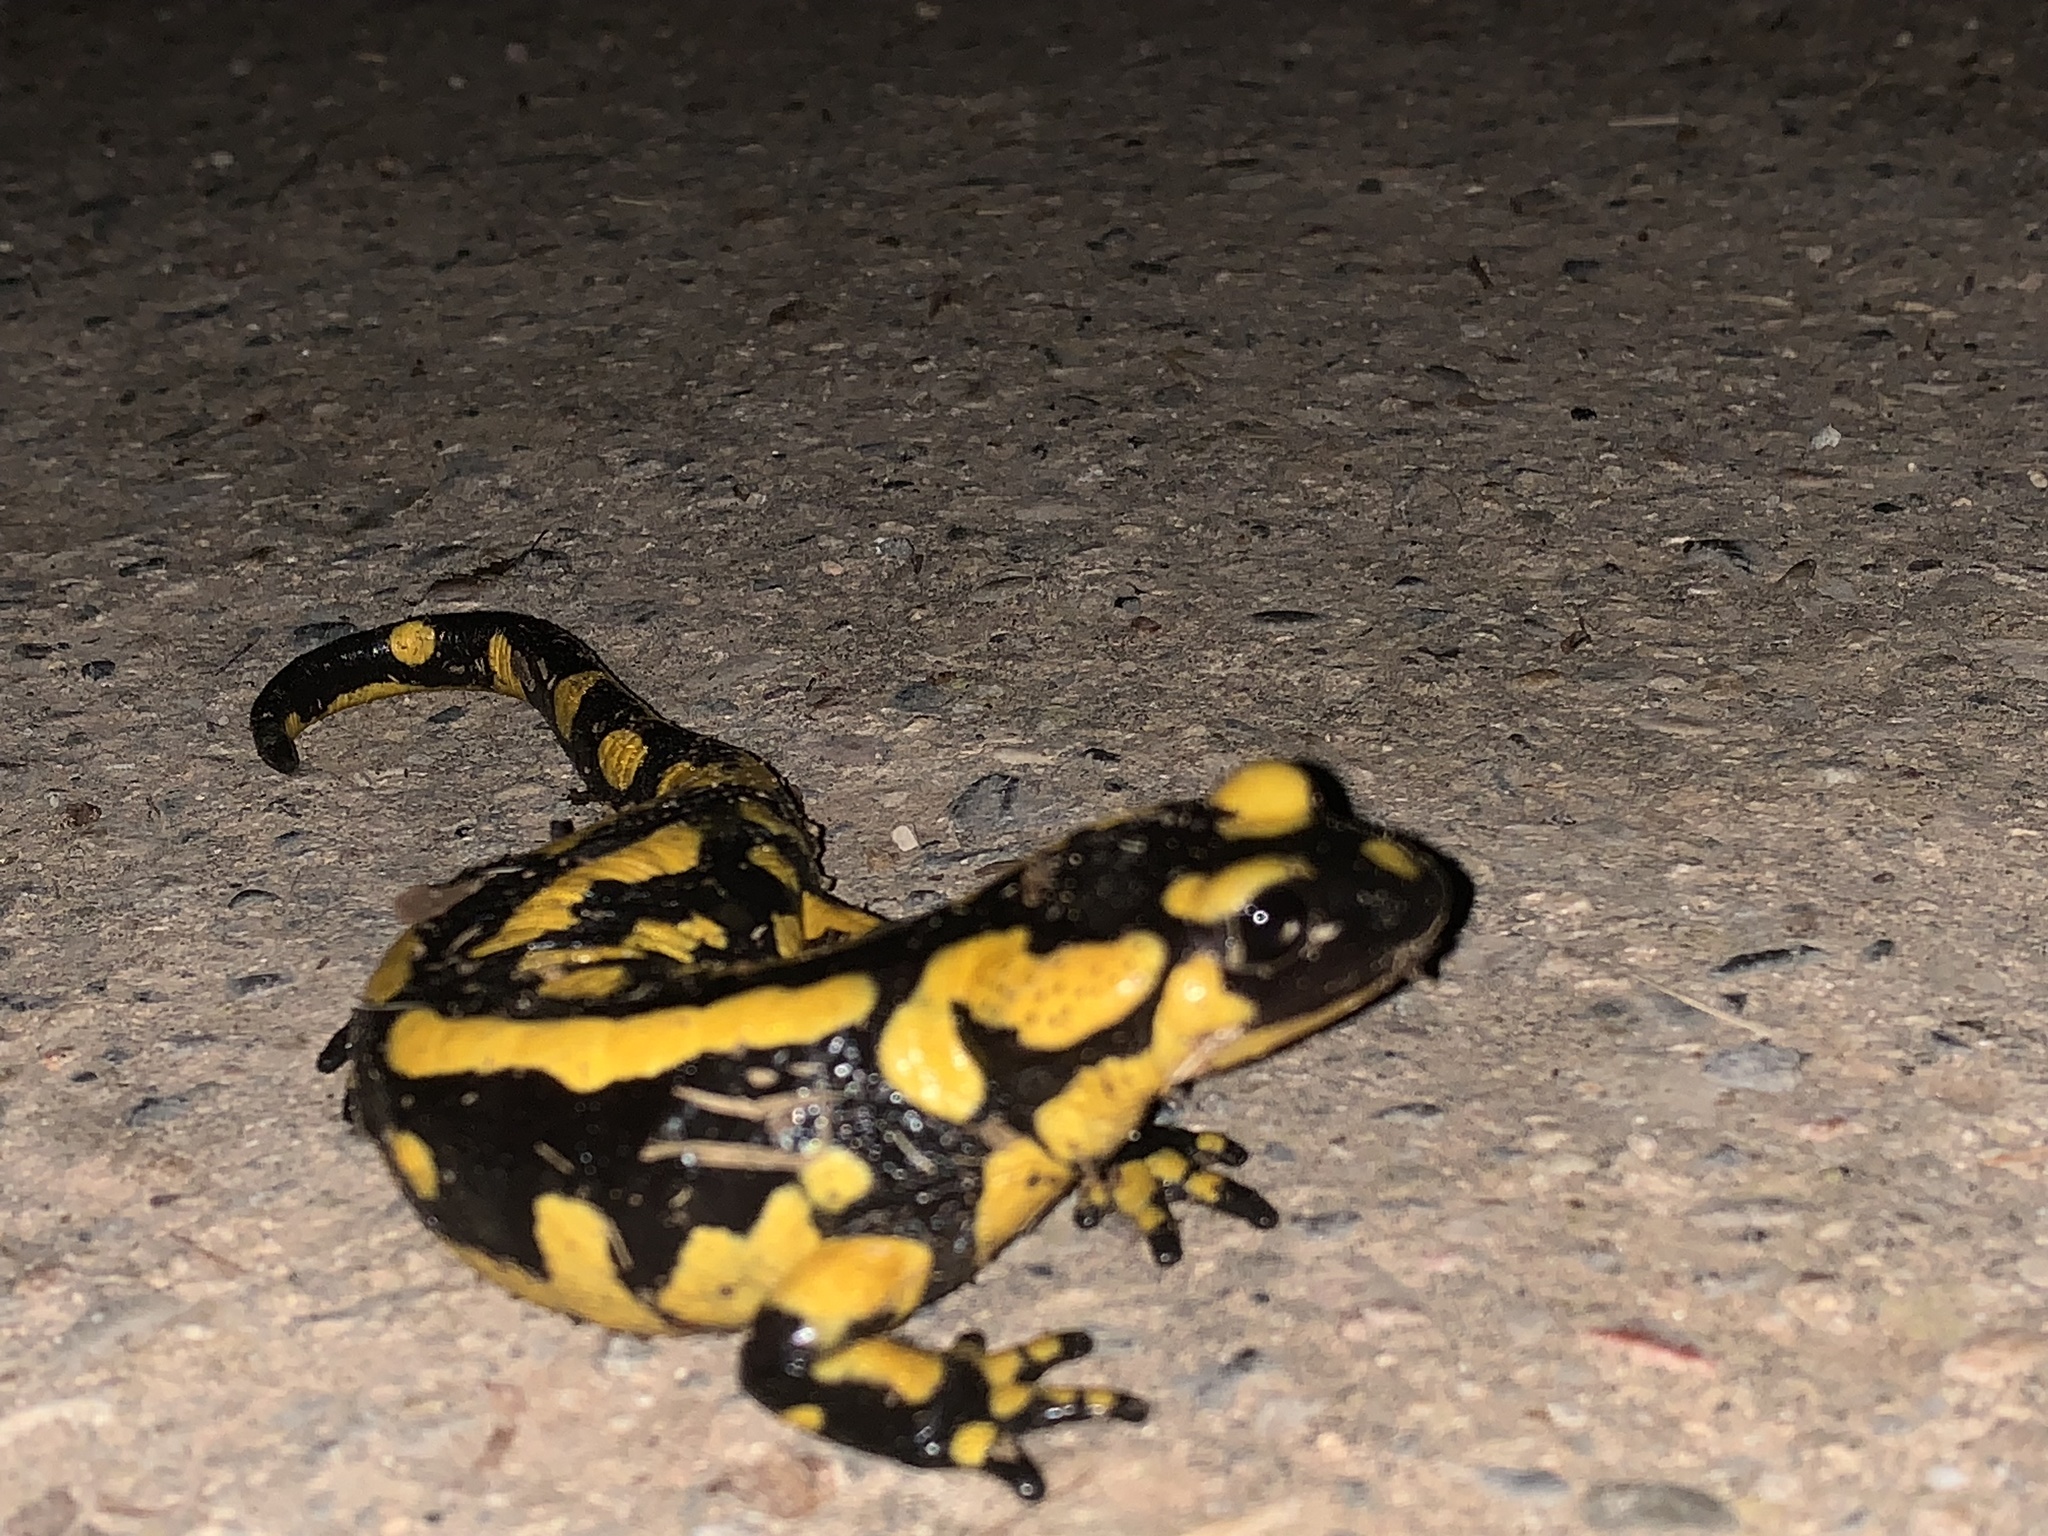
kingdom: Animalia
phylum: Chordata
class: Amphibia
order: Caudata
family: Salamandridae
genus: Salamandra
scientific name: Salamandra salamandra
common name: Fire salamander
